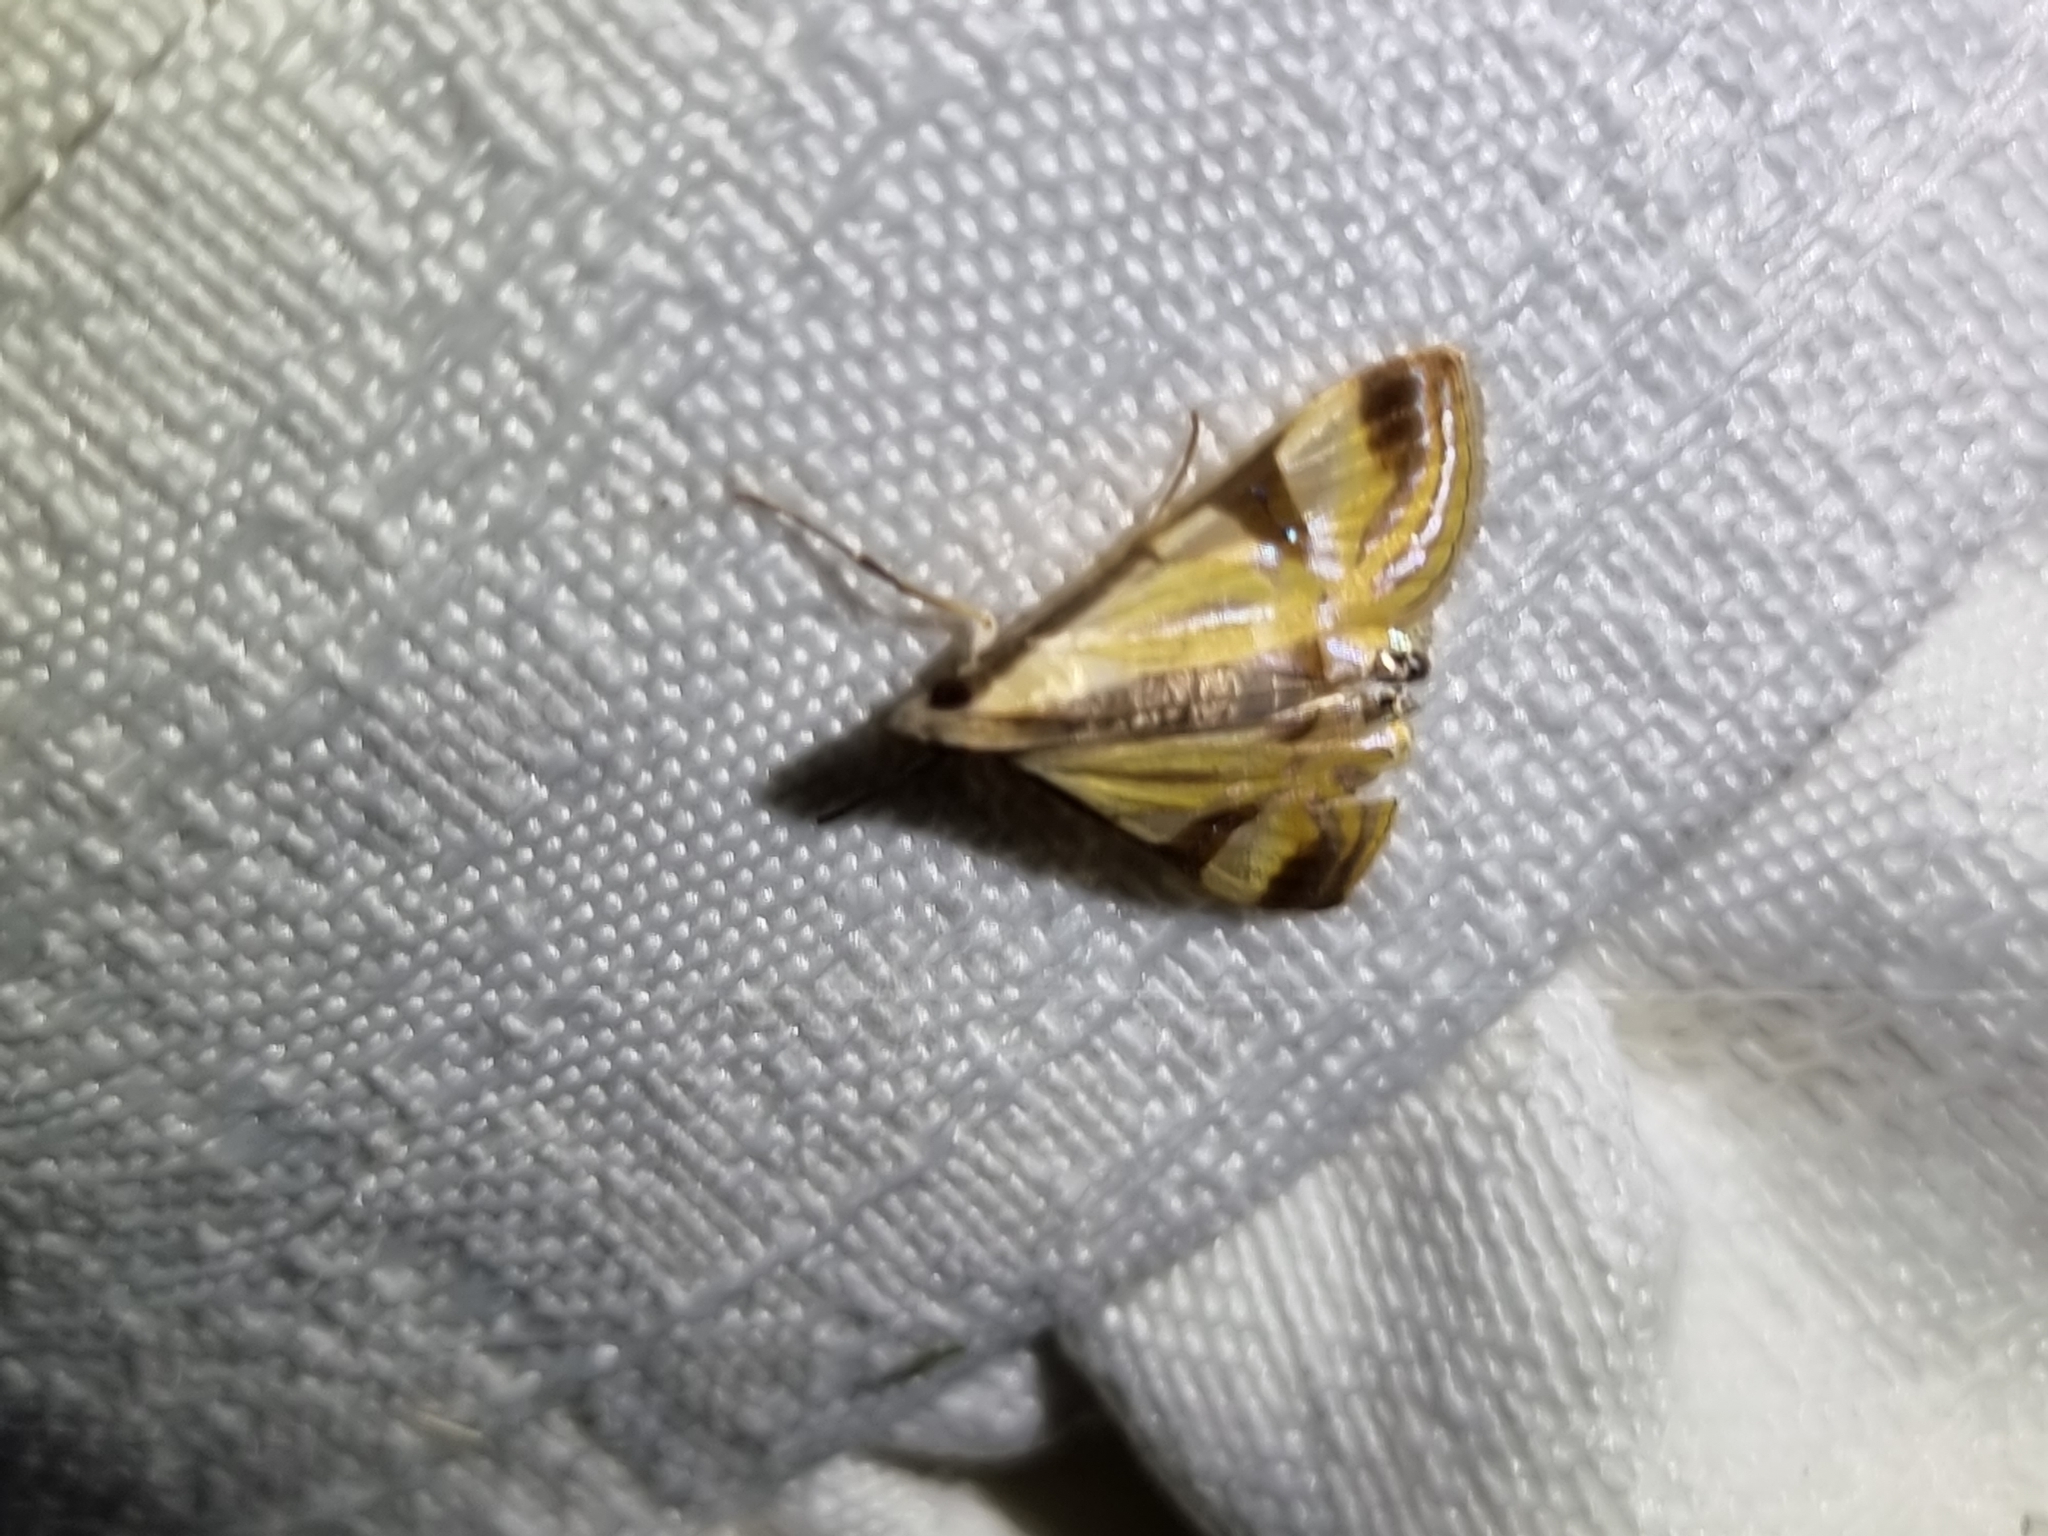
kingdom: Animalia
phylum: Arthropoda
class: Insecta
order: Lepidoptera
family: Crambidae
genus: Talanga
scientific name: Talanga tolumnialis
